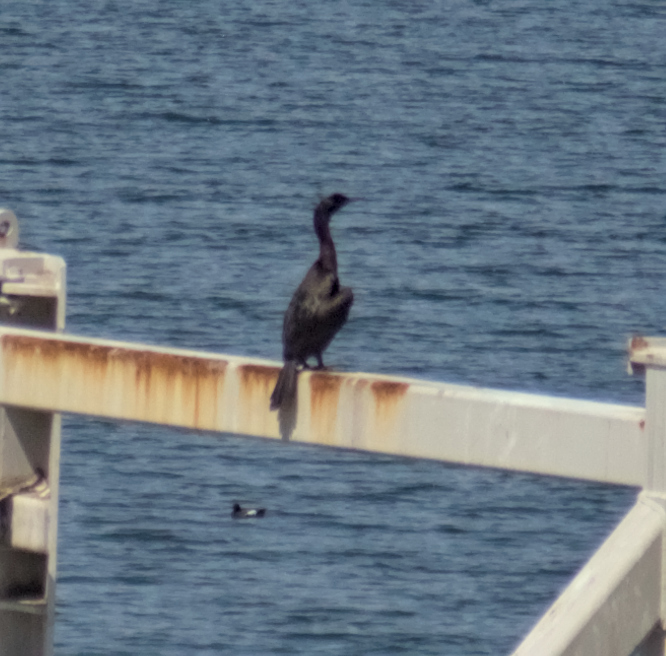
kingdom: Animalia
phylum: Chordata
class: Aves
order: Suliformes
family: Phalacrocoracidae
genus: Phalacrocorax
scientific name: Phalacrocorax auritus
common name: Double-crested cormorant
